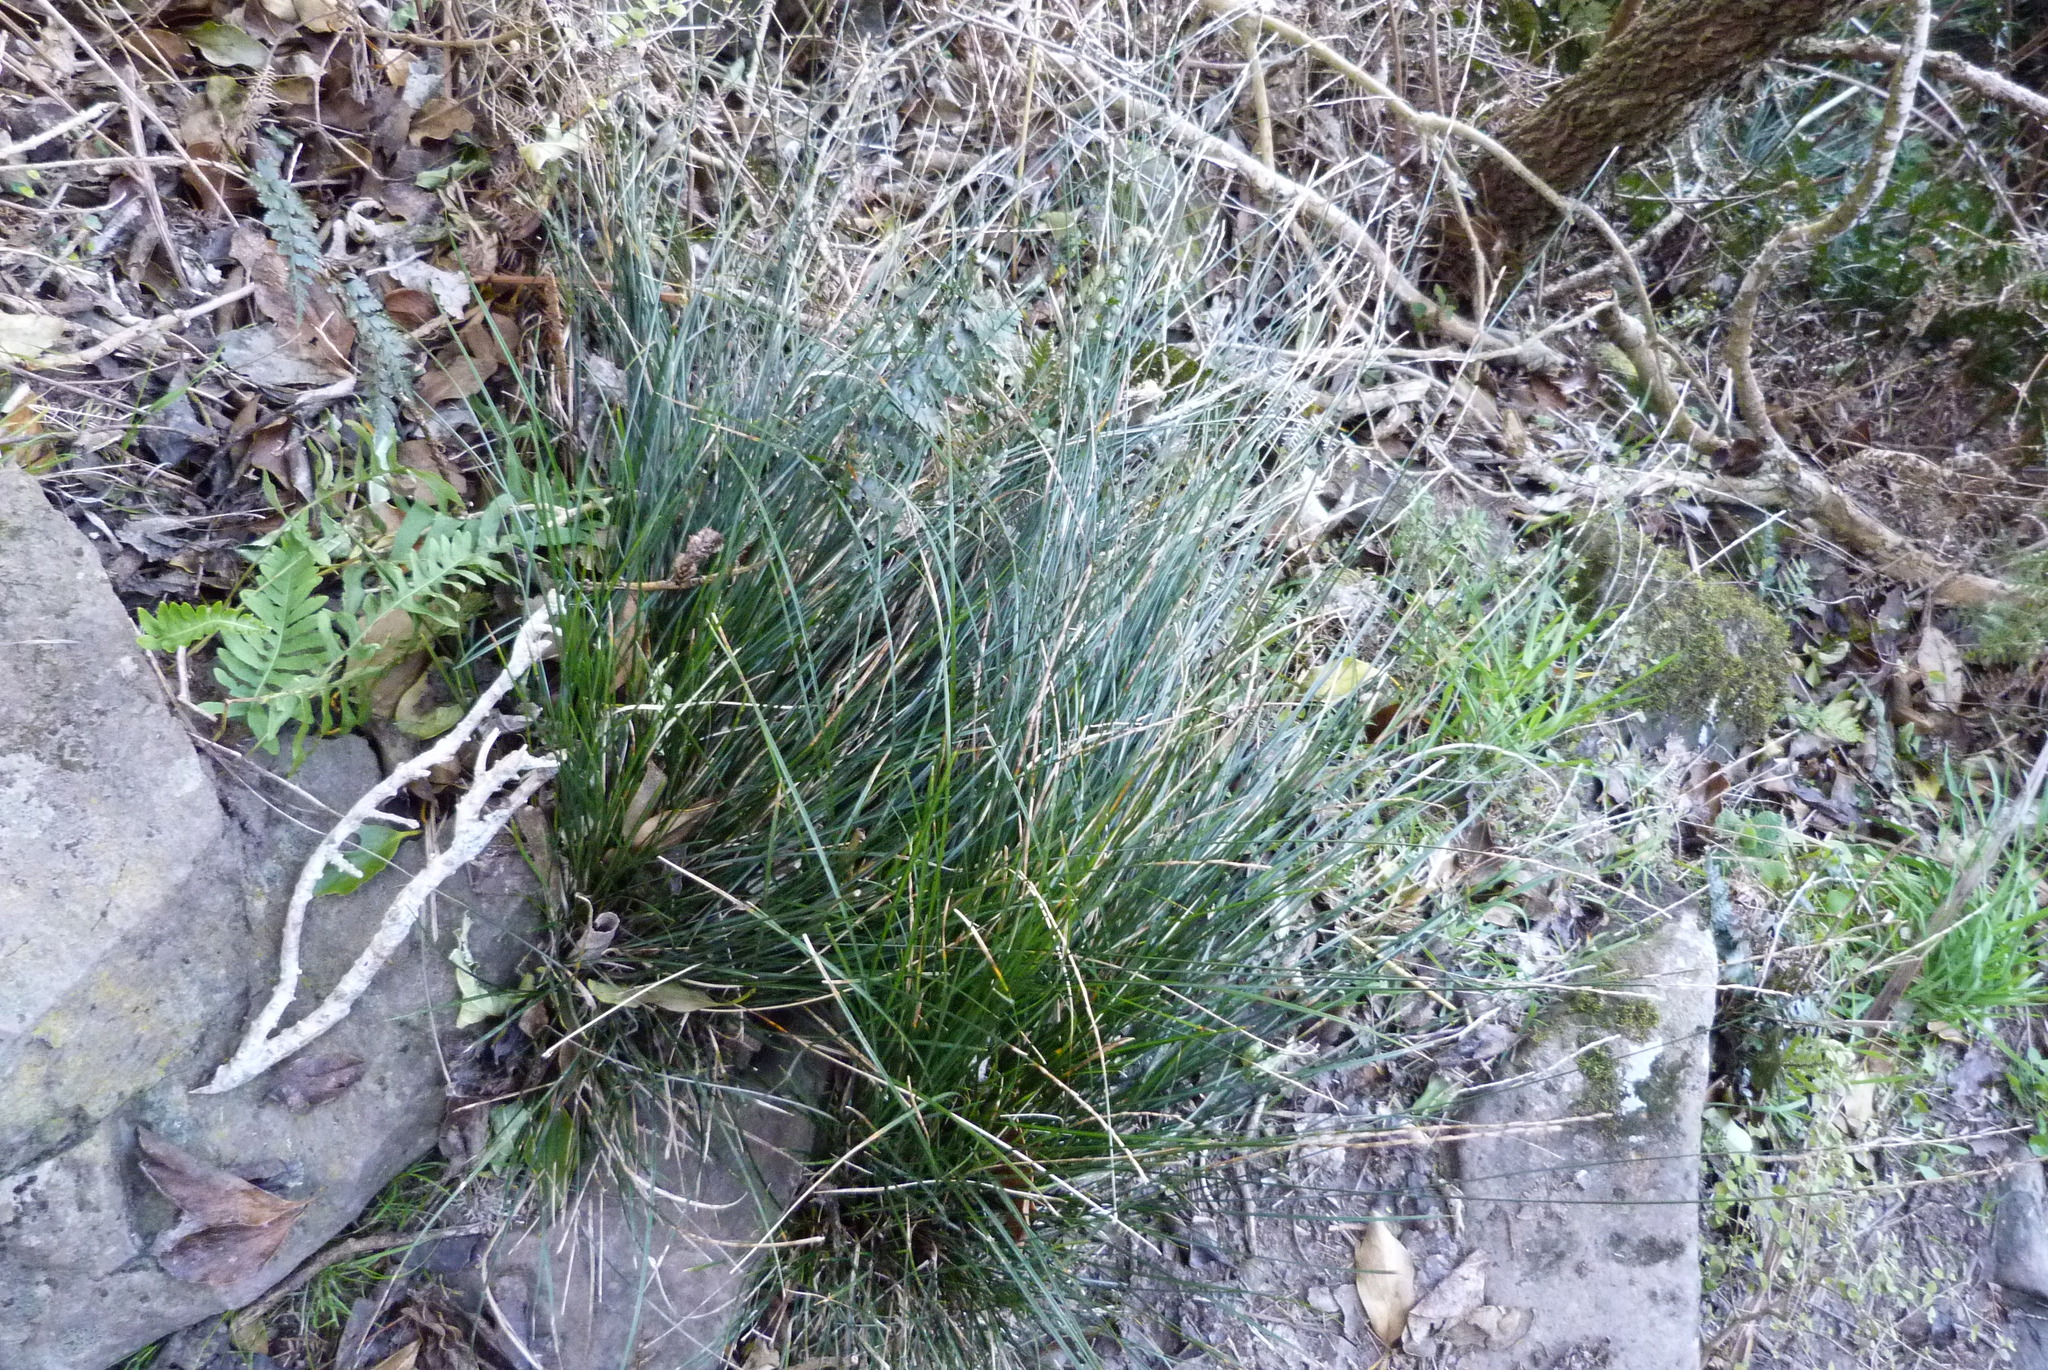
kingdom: Plantae
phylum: Tracheophyta
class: Liliopsida
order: Poales
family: Cyperaceae
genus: Carex
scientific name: Carex imbecilla
